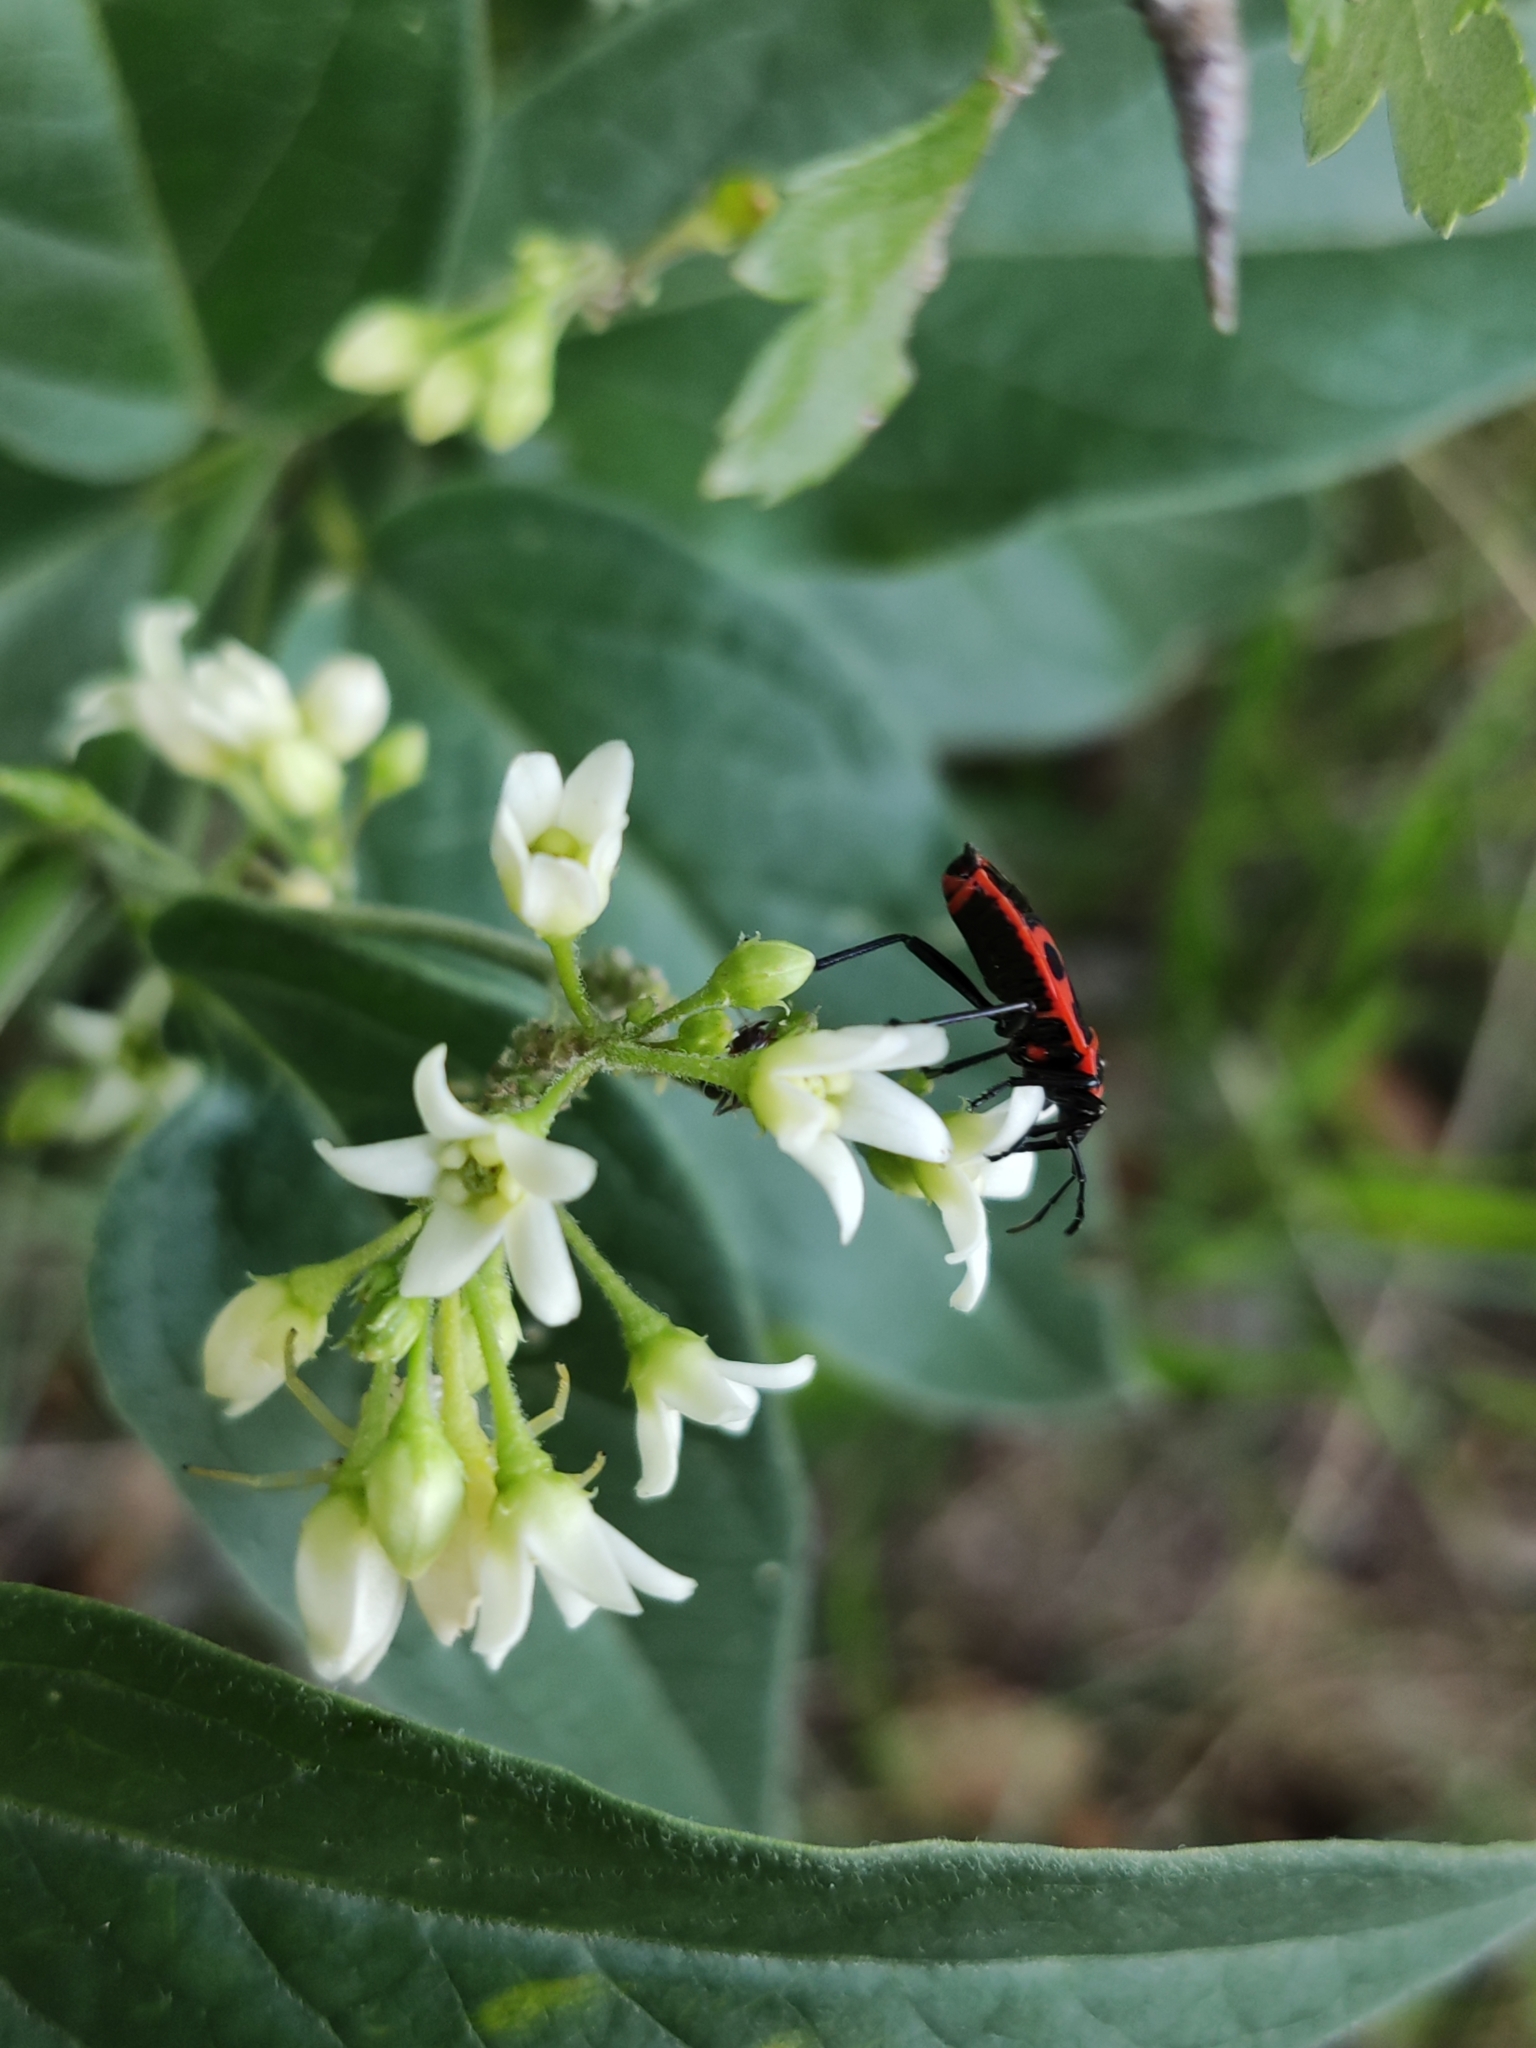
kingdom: Plantae
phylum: Tracheophyta
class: Magnoliopsida
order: Gentianales
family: Apocynaceae
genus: Vincetoxicum
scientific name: Vincetoxicum hirundinaria
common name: White swallowwort
